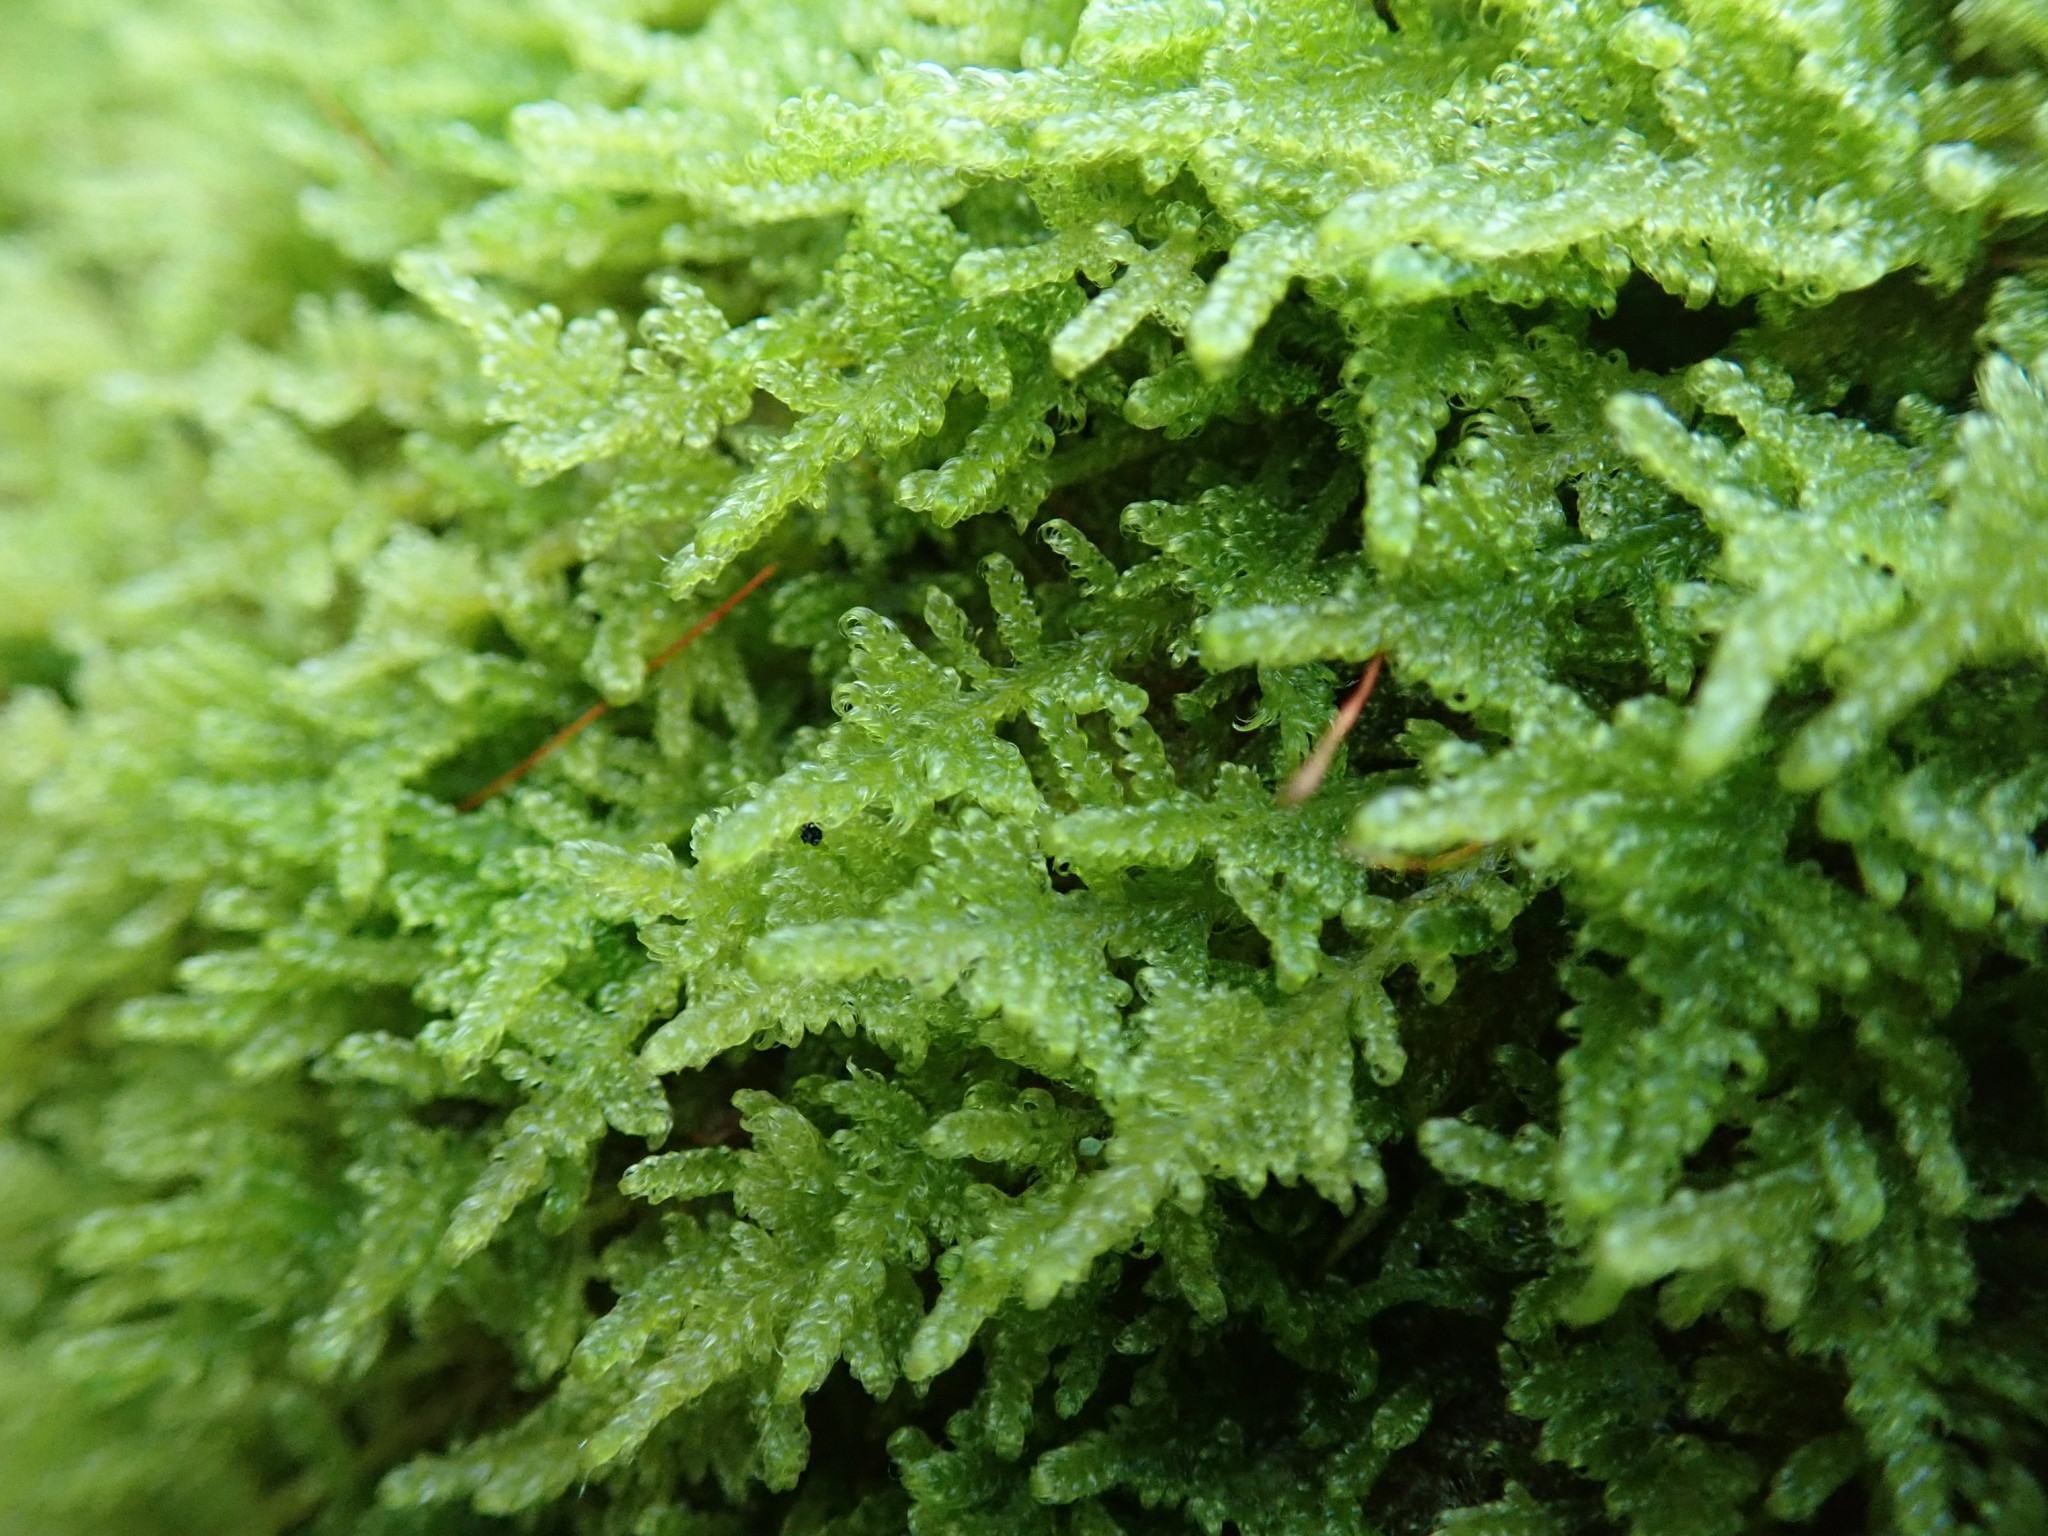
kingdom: Plantae
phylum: Bryophyta
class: Bryopsida
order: Hypnales
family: Stereodontaceae
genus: Stereodon
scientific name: Stereodon subimponens
